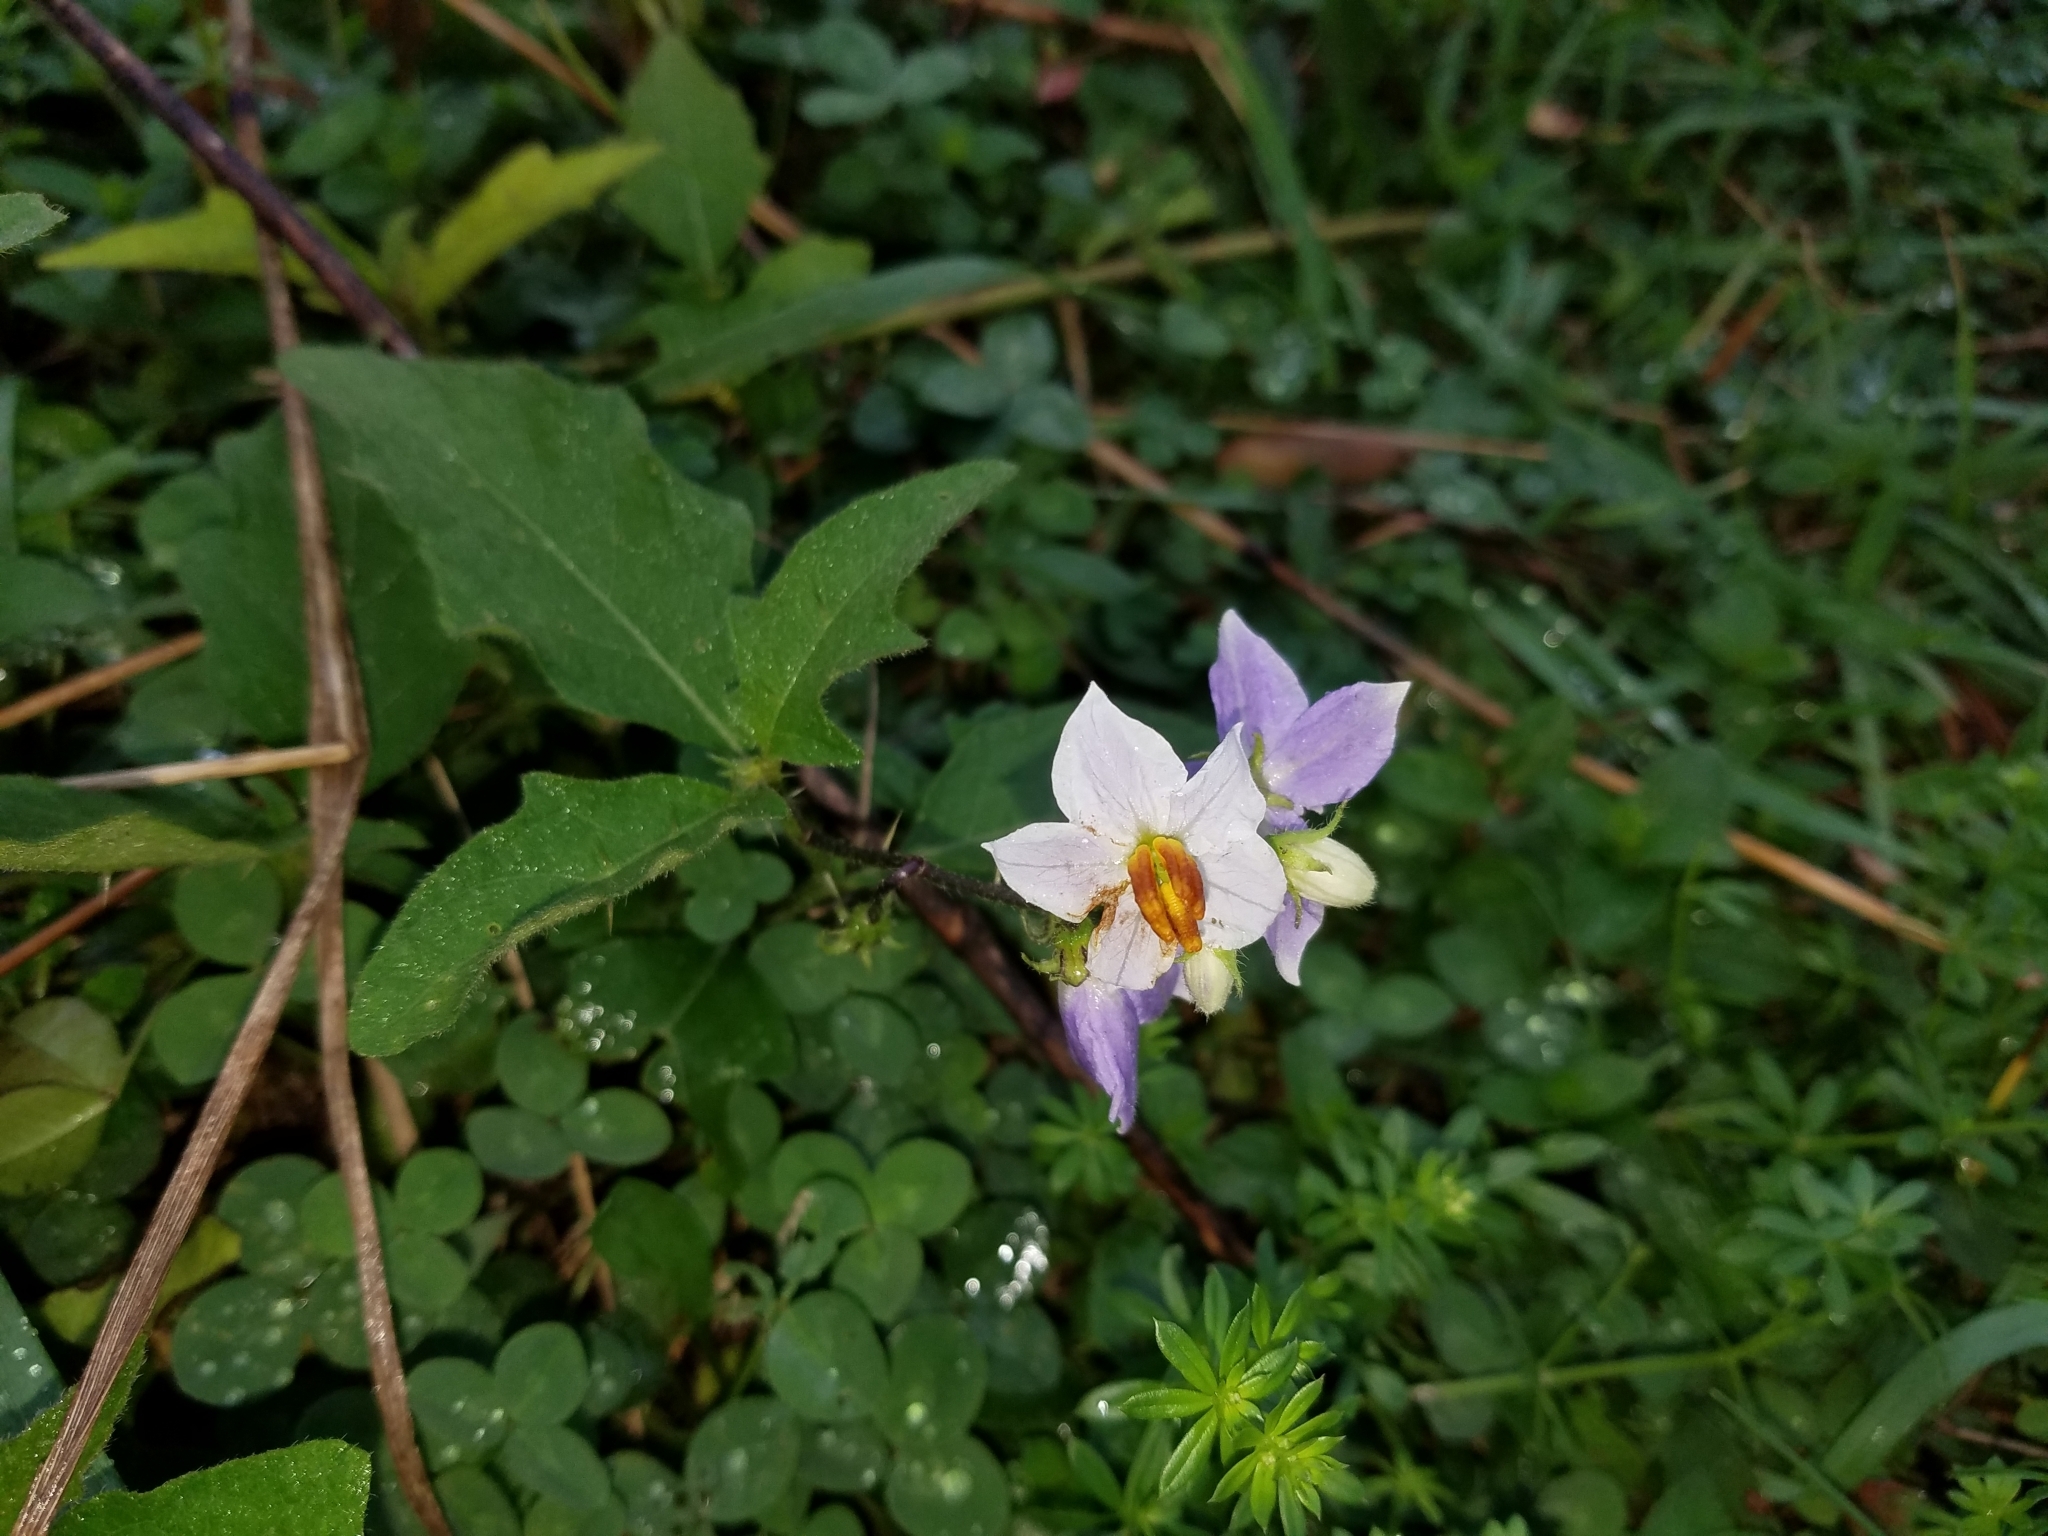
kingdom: Plantae
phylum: Tracheophyta
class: Magnoliopsida
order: Solanales
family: Solanaceae
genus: Solanum
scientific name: Solanum carolinense
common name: Horse-nettle
